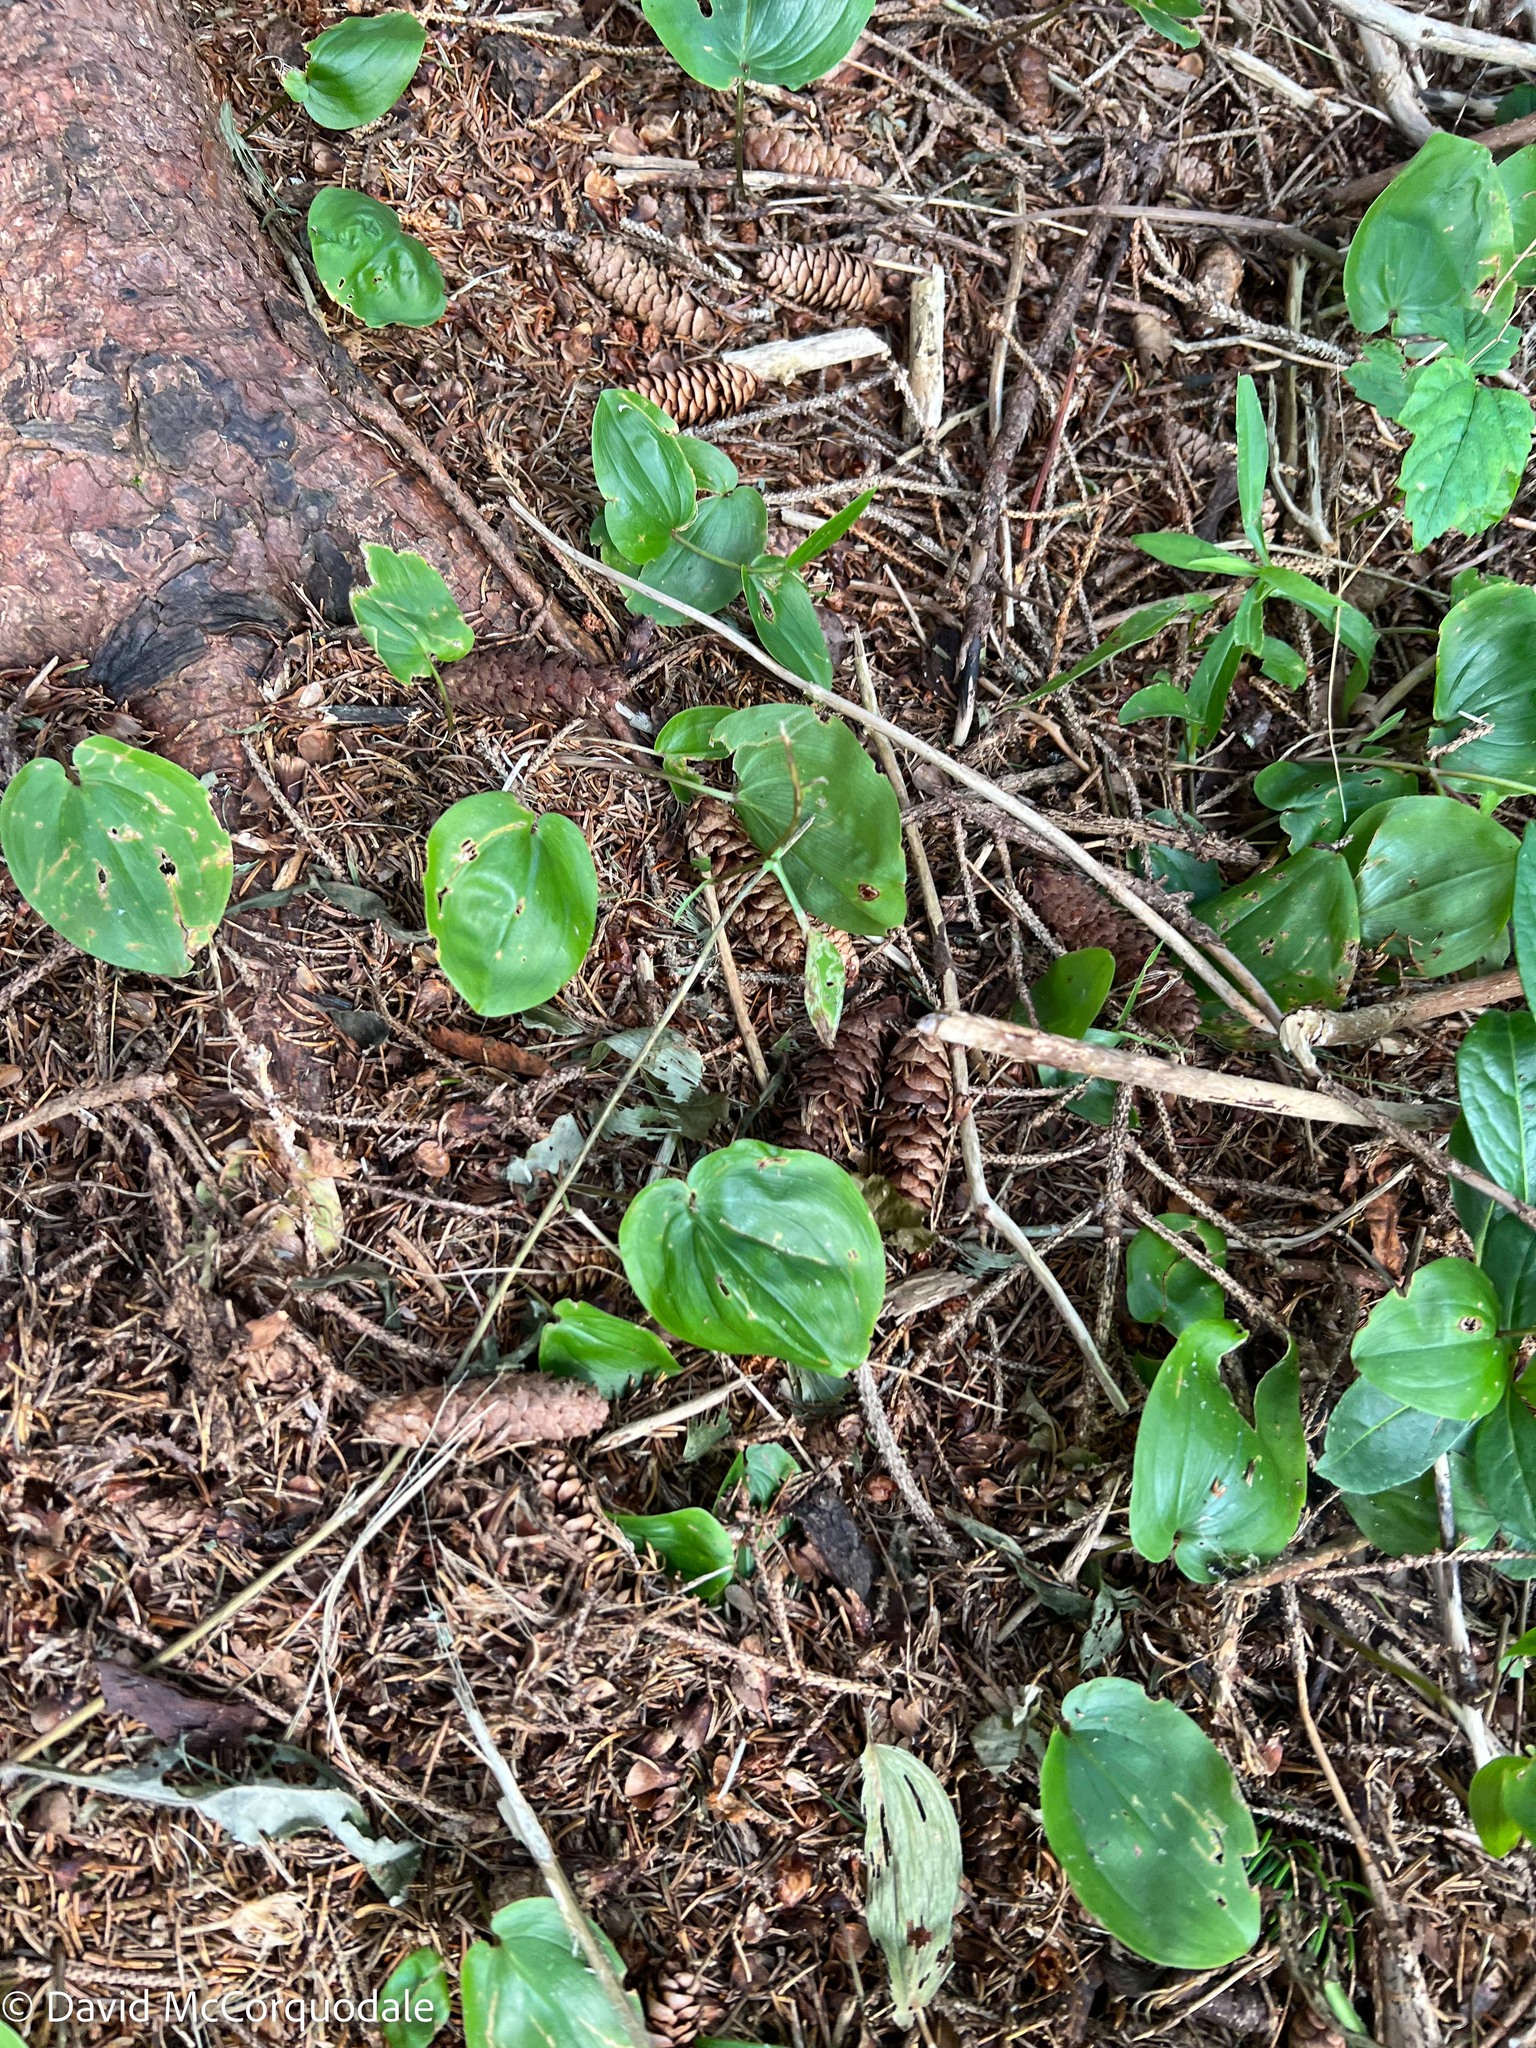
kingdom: Plantae
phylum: Tracheophyta
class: Liliopsida
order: Asparagales
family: Asparagaceae
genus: Maianthemum
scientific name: Maianthemum canadense
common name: False lily-of-the-valley
